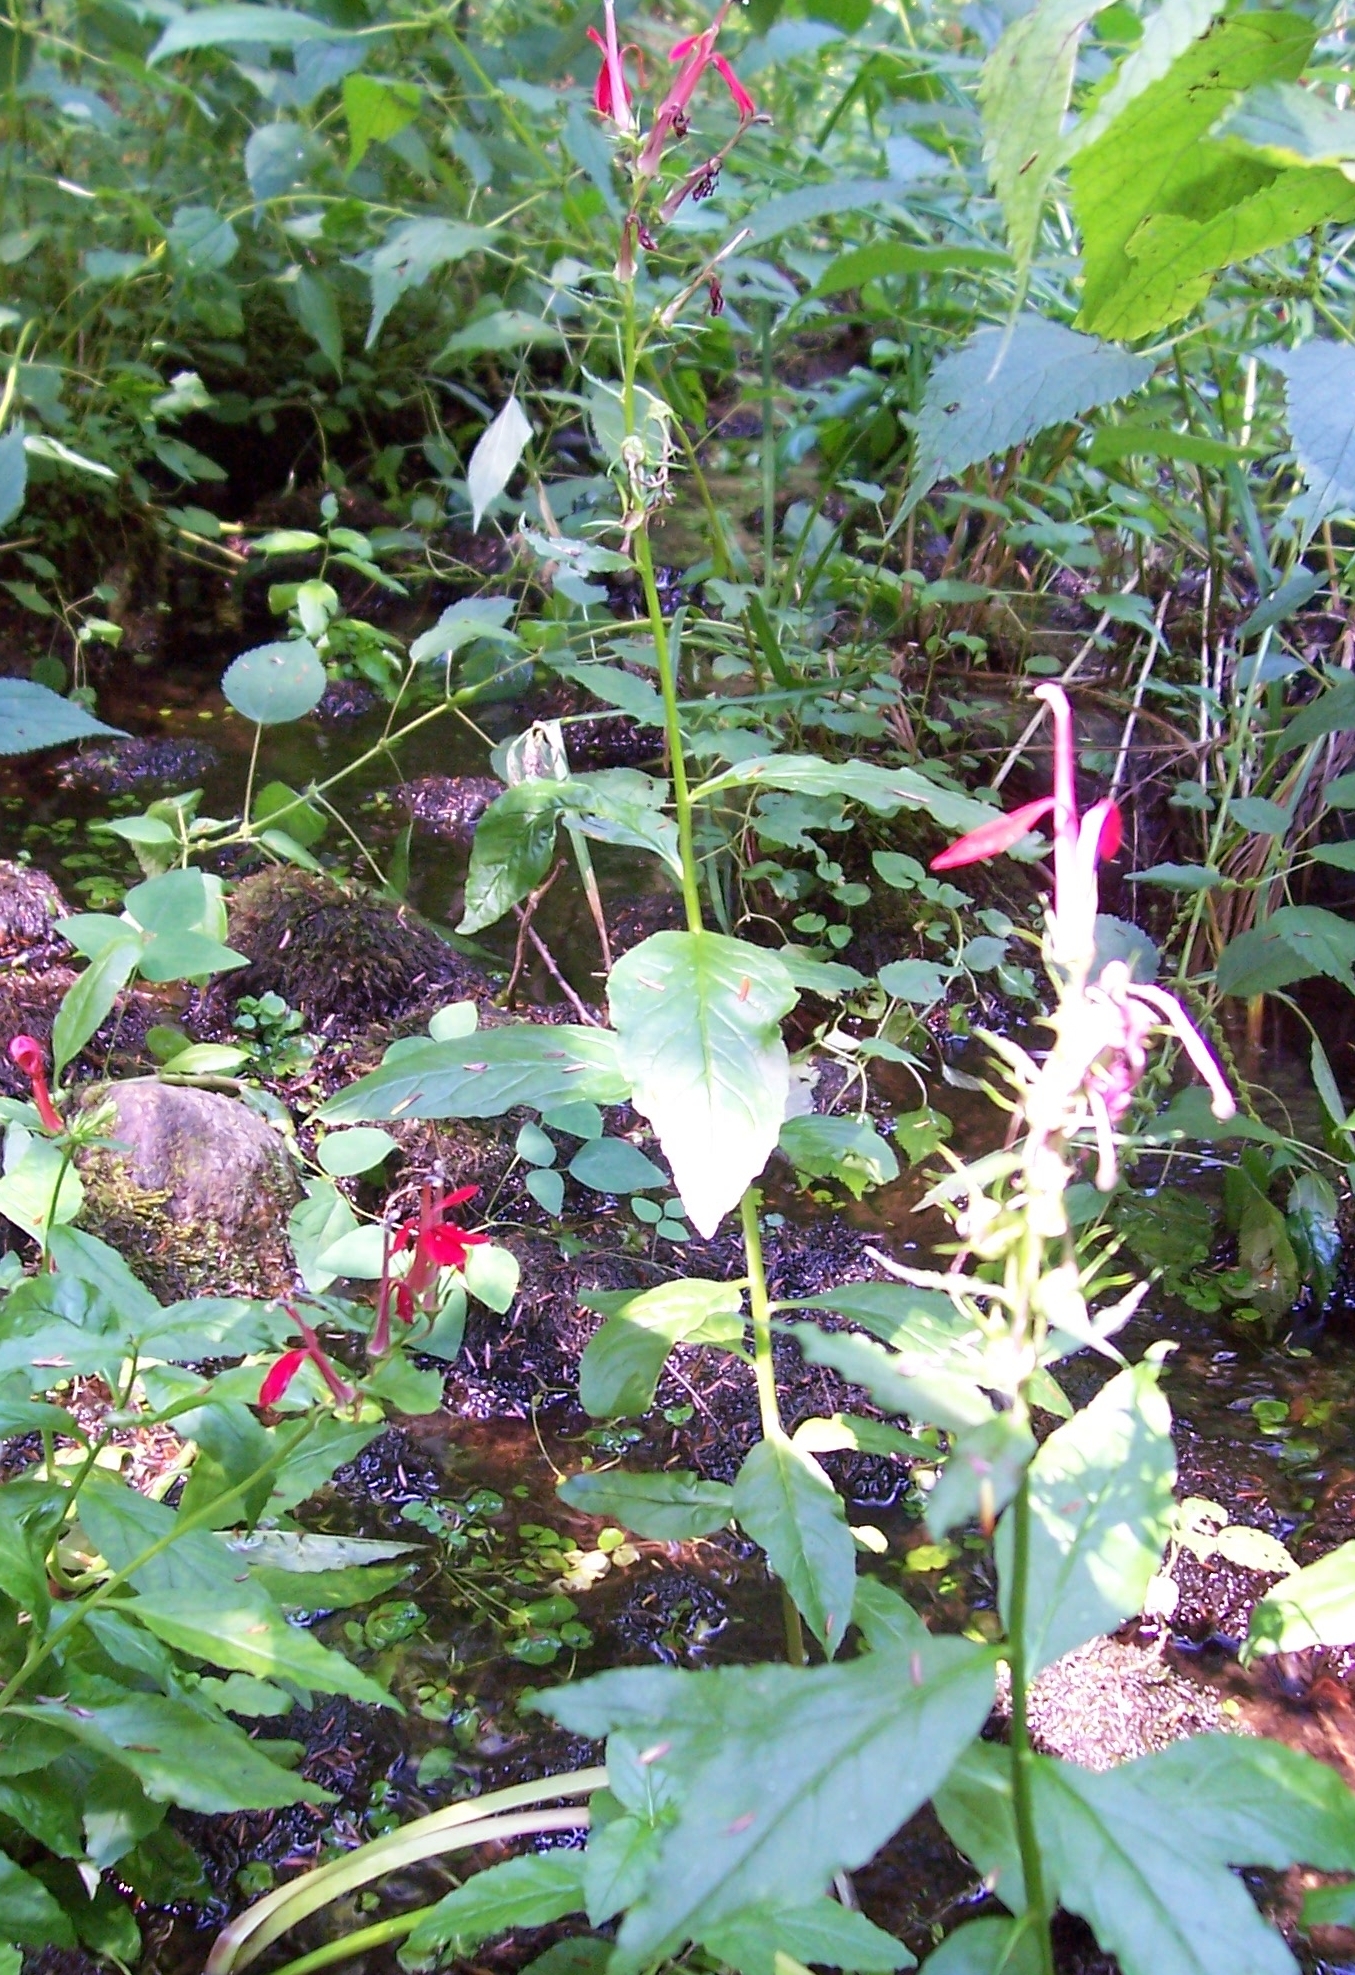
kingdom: Plantae
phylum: Tracheophyta
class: Magnoliopsida
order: Asterales
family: Campanulaceae
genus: Lobelia
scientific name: Lobelia cardinalis
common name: Cardinal flower
